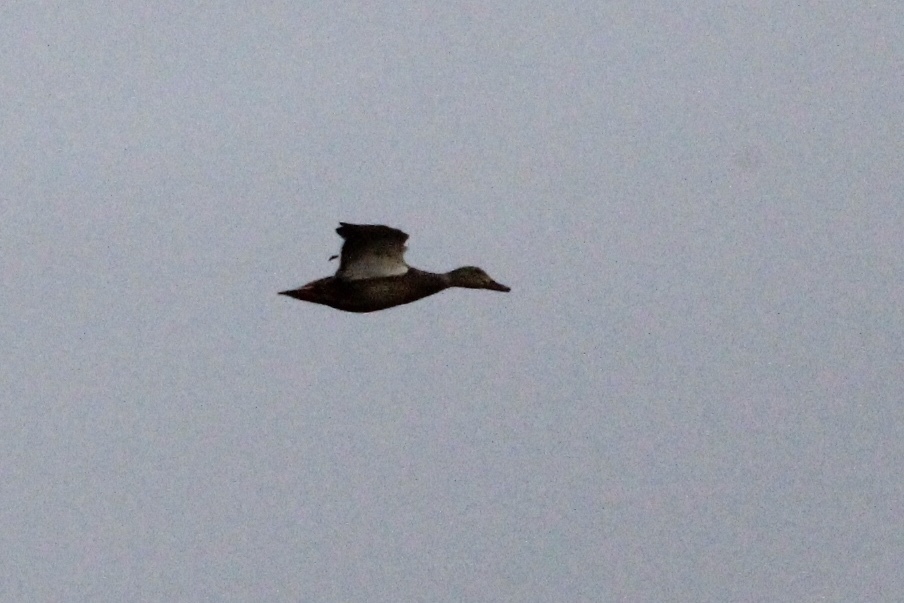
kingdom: Animalia
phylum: Chordata
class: Aves
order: Anseriformes
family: Anatidae
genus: Anas
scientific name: Anas platyrhynchos
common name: Mallard
